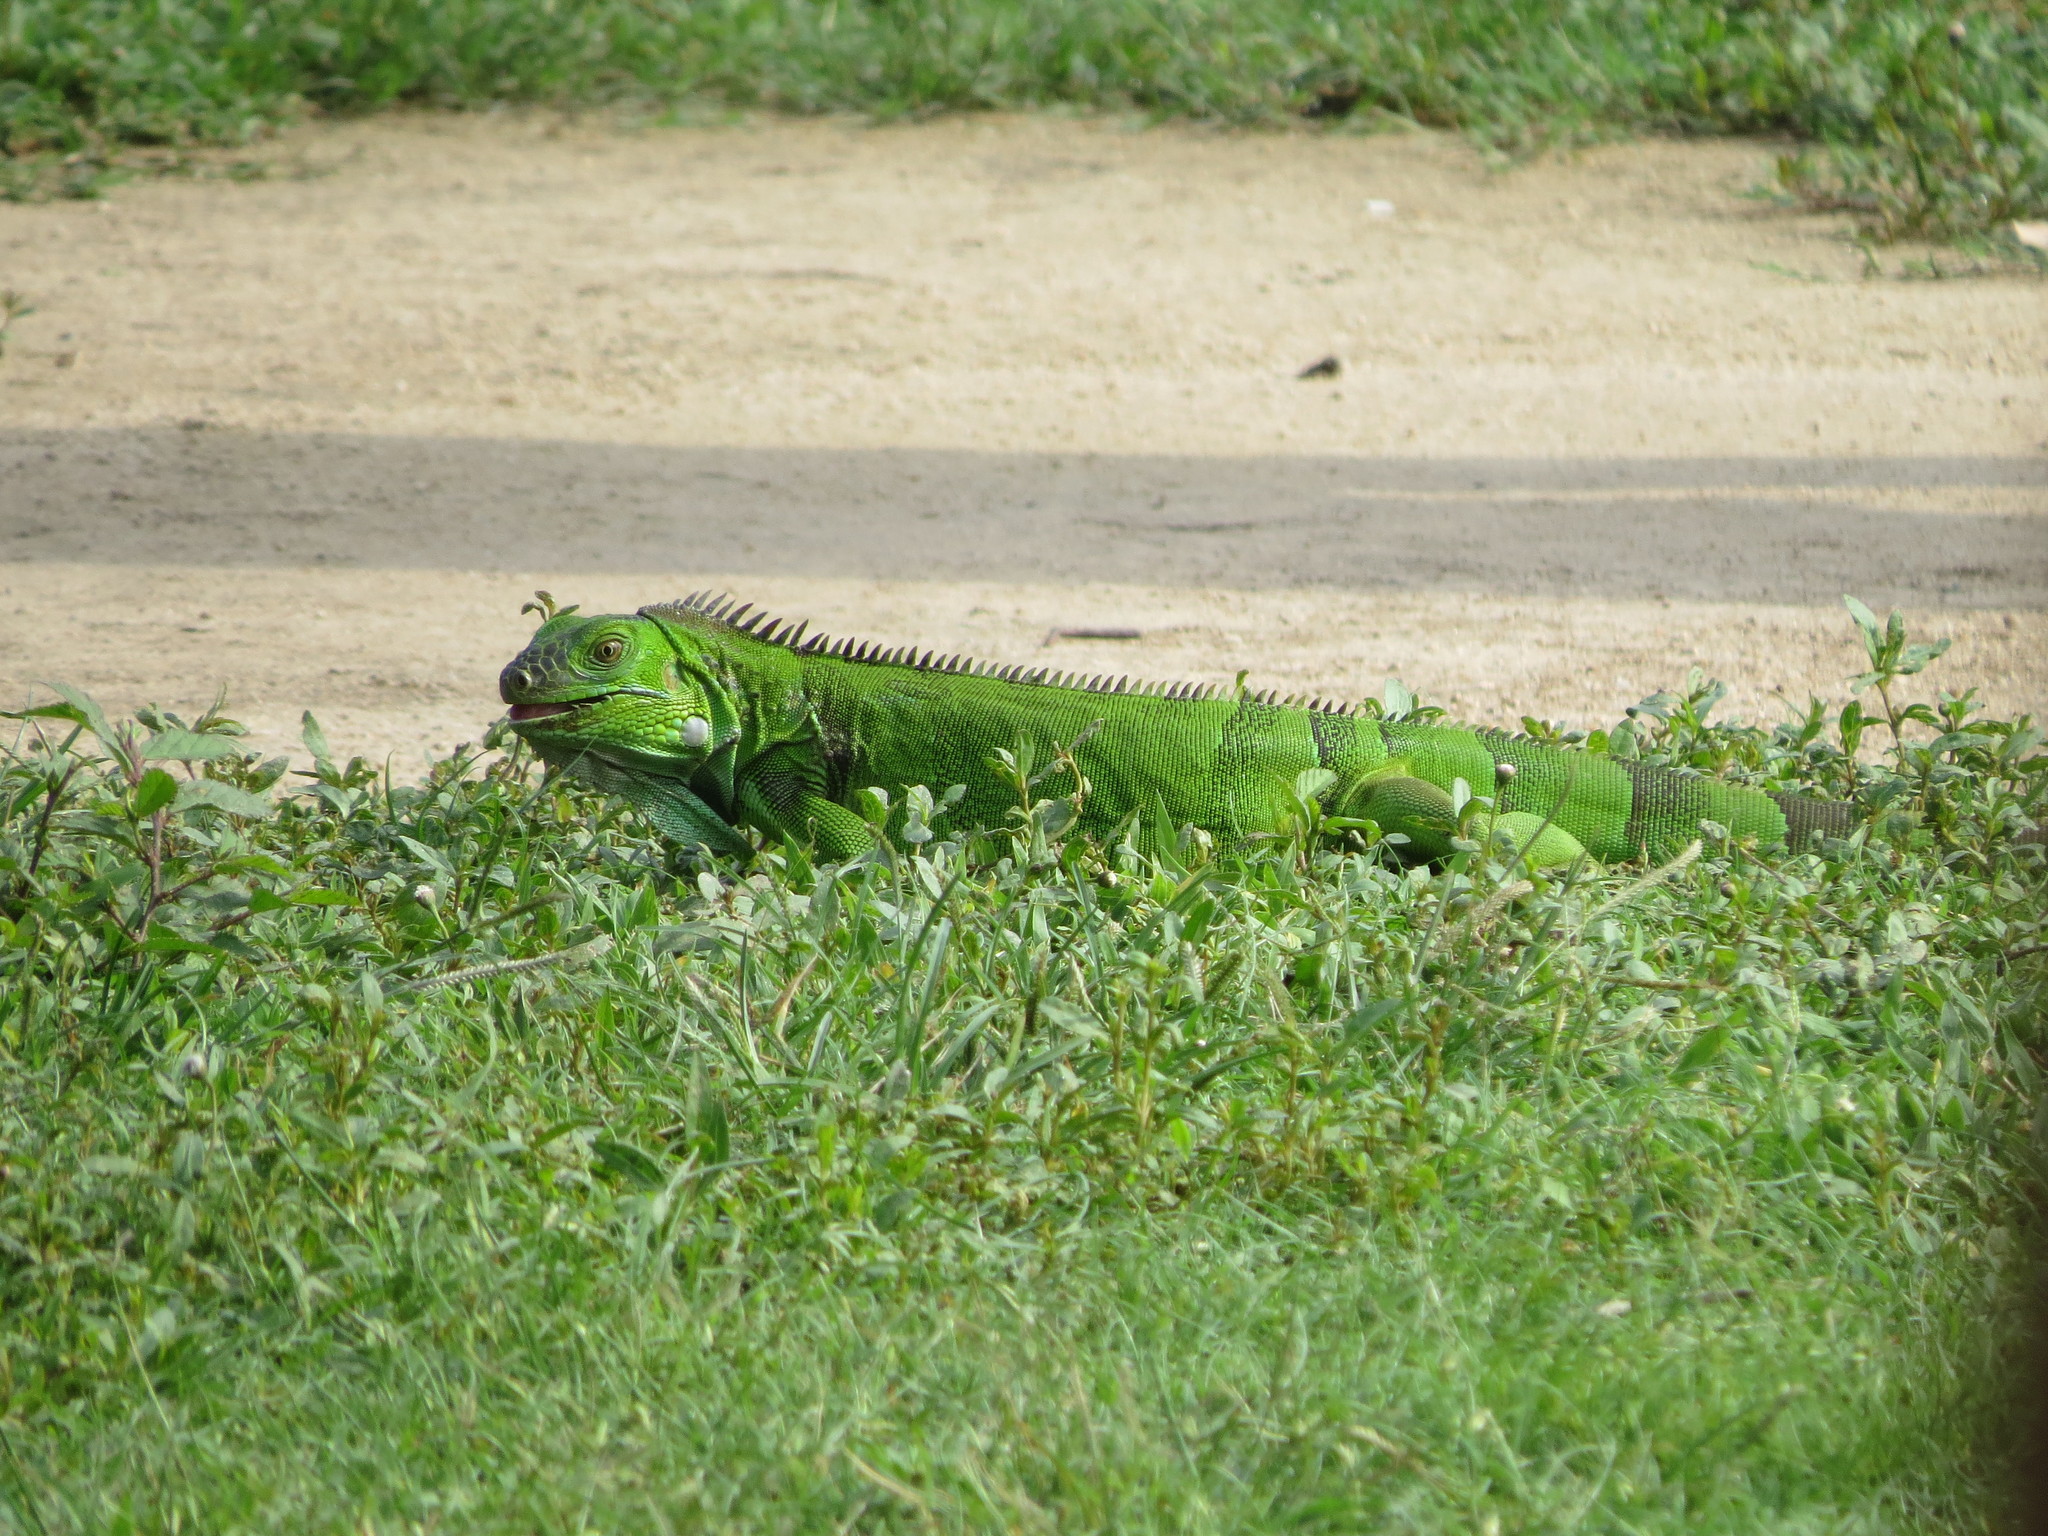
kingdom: Animalia
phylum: Chordata
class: Squamata
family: Iguanidae
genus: Iguana
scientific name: Iguana iguana
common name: Green iguana
